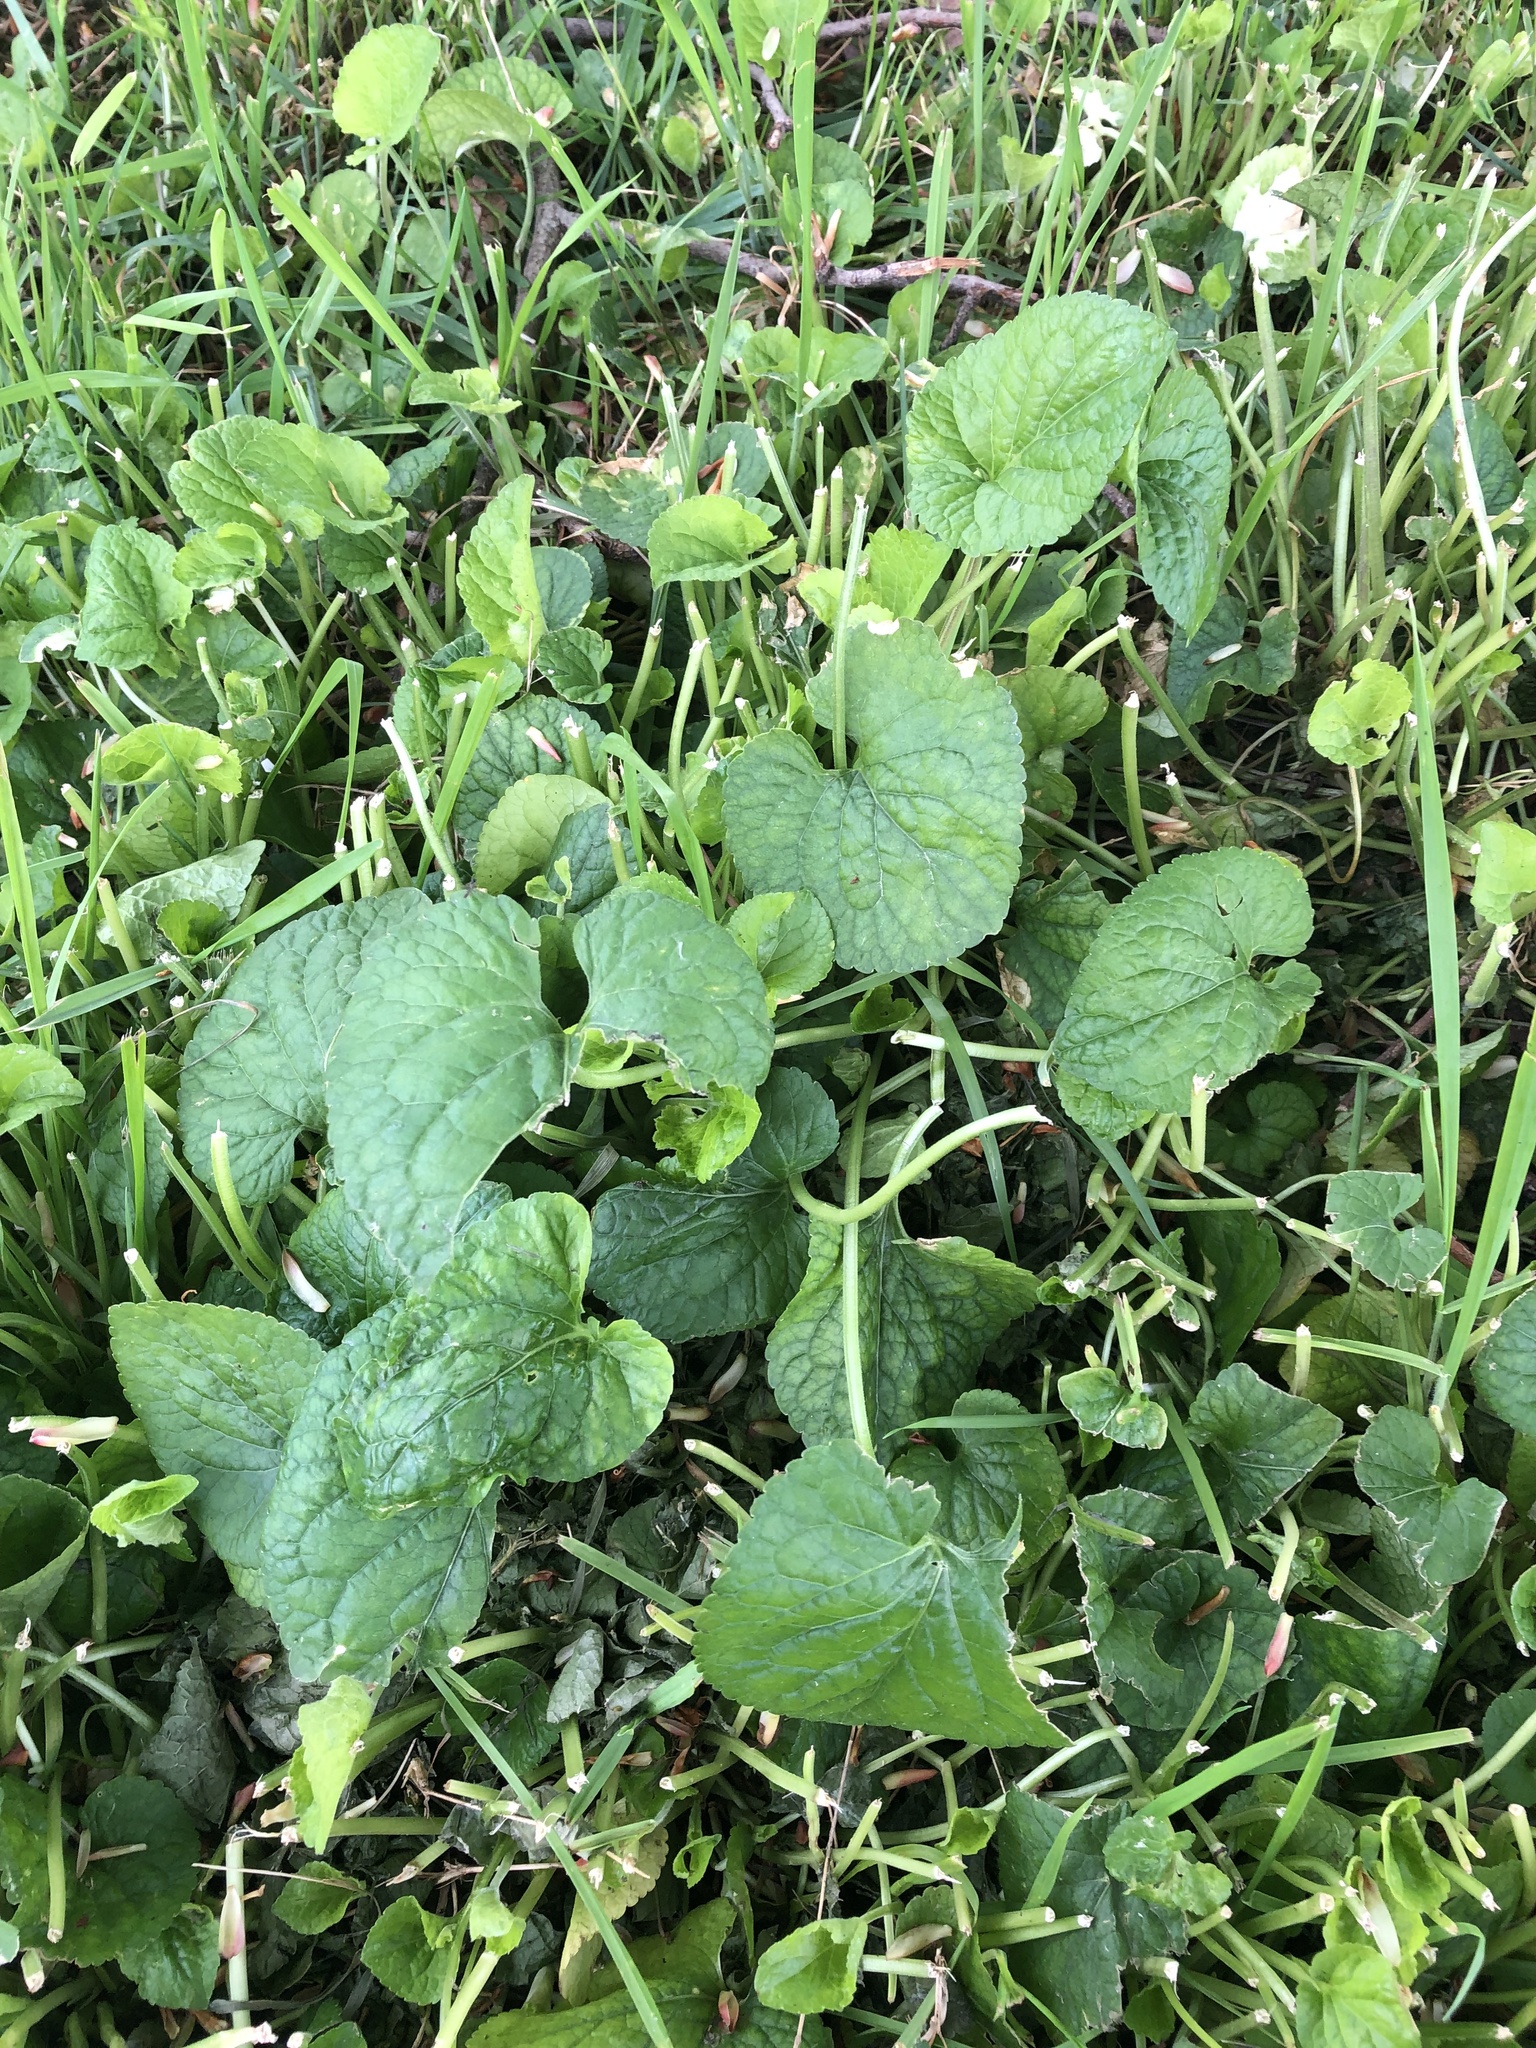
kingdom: Plantae
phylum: Tracheophyta
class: Magnoliopsida
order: Malpighiales
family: Violaceae
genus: Viola
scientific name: Viola odorata
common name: Sweet violet
